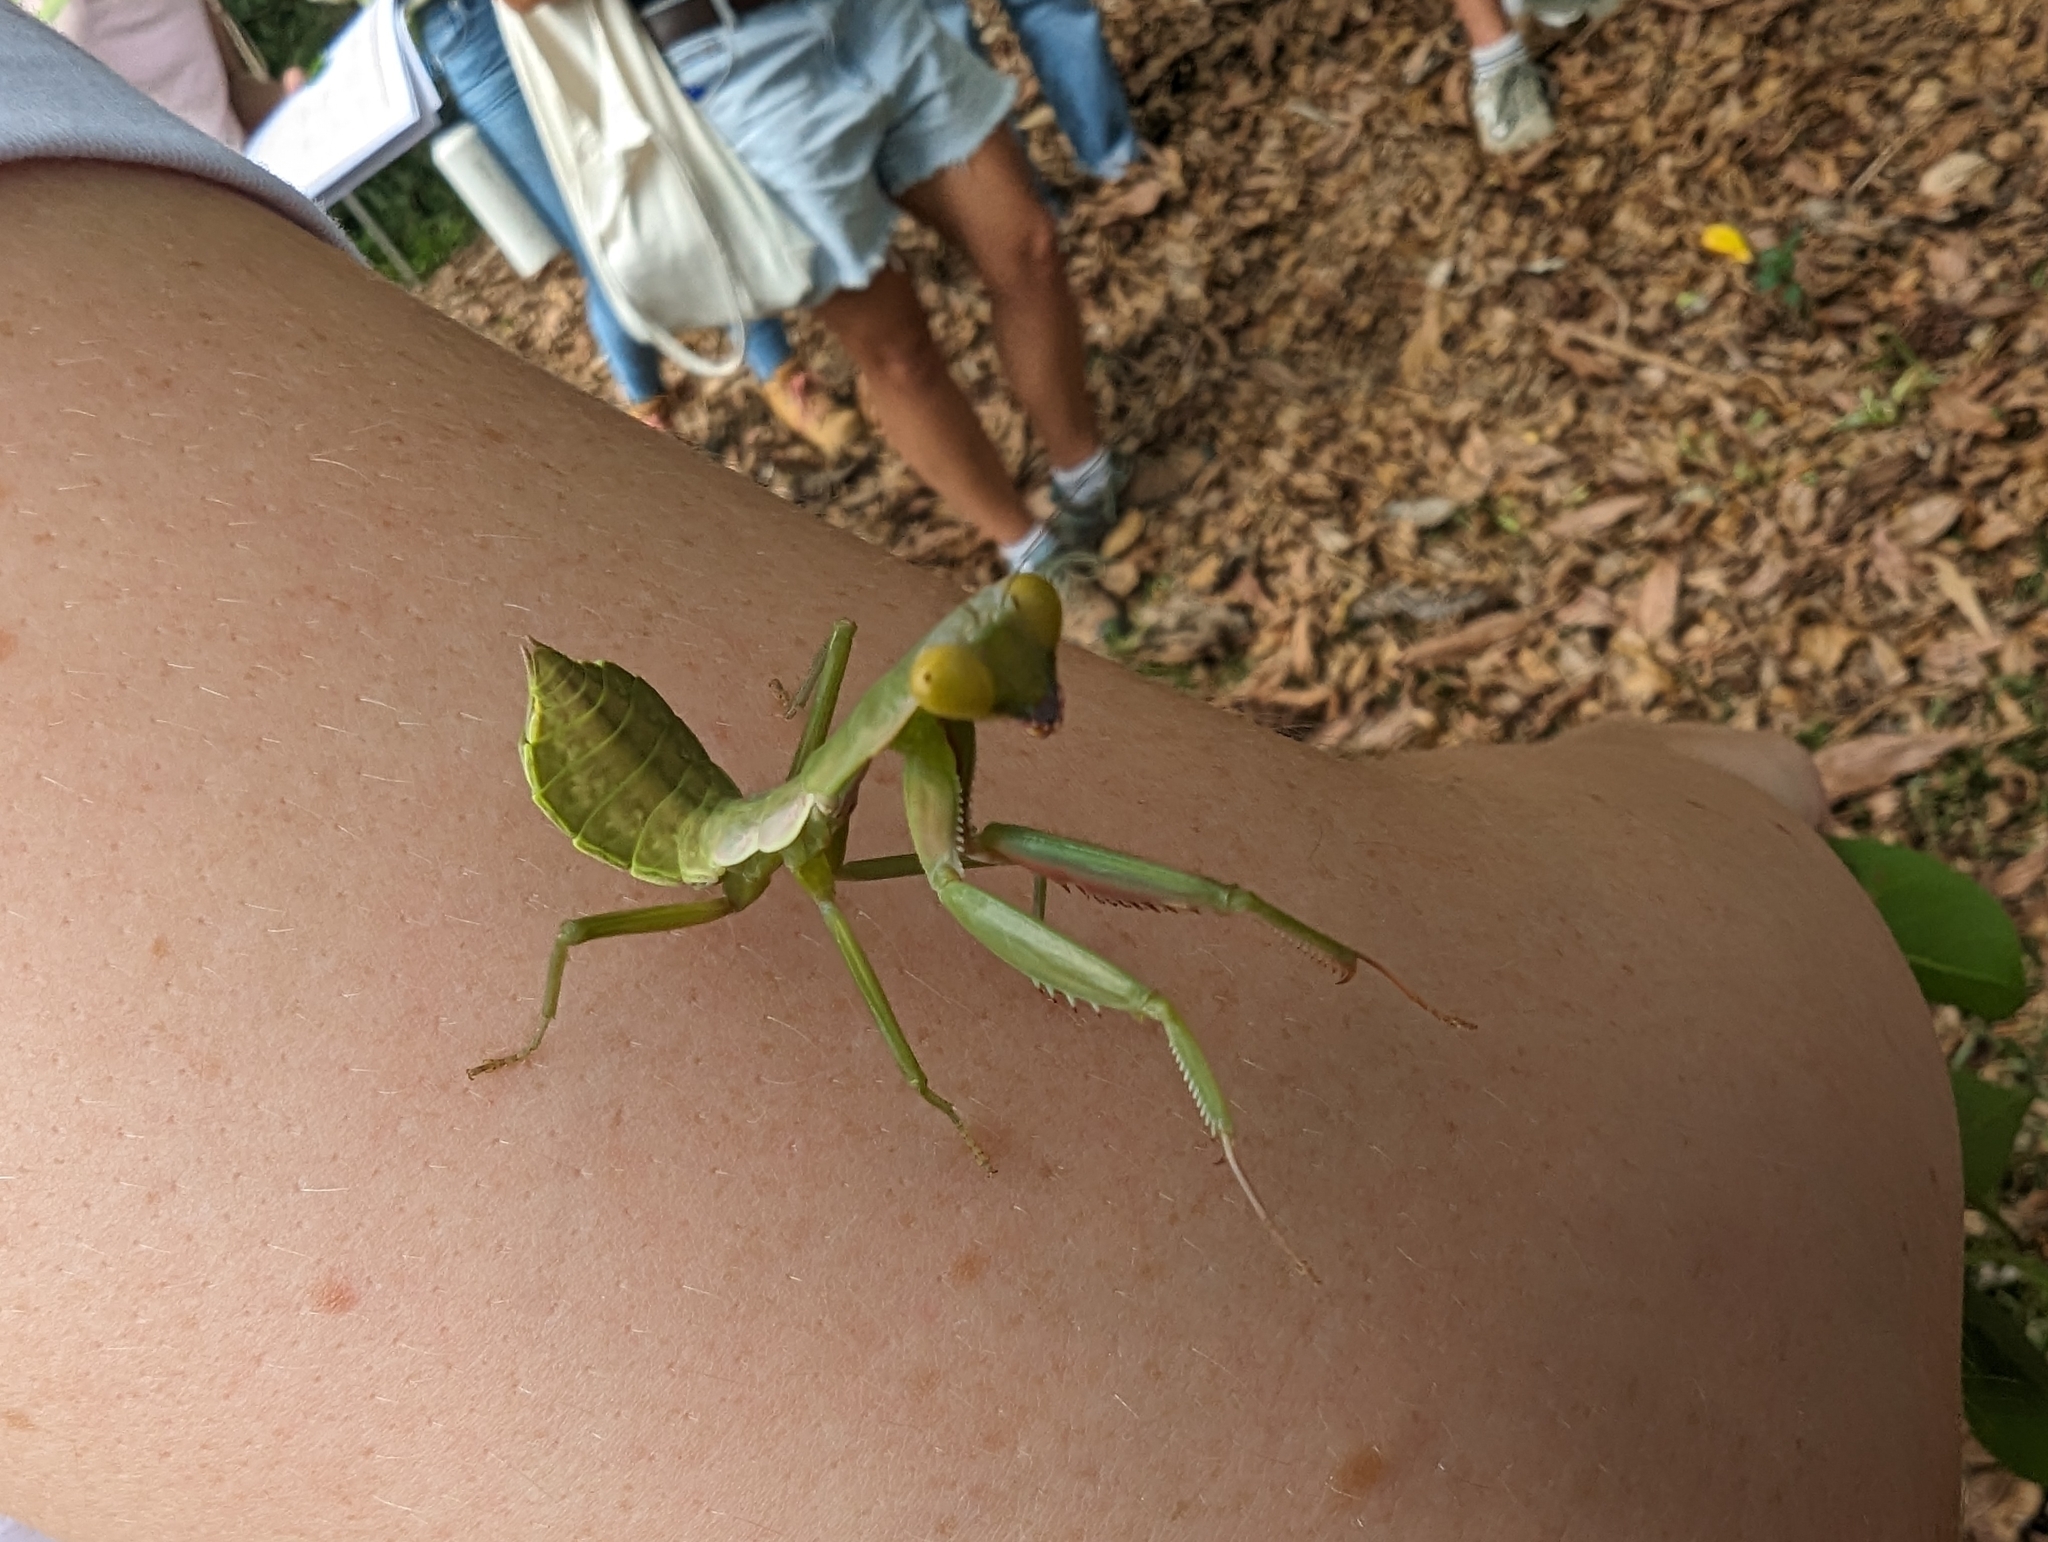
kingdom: Animalia
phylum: Arthropoda
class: Insecta
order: Mantodea
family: Mantidae
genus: Hierodula
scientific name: Hierodula majuscula
